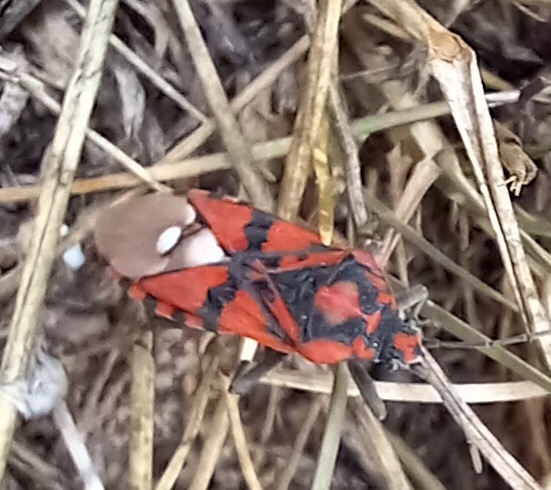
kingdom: Animalia
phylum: Arthropoda
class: Insecta
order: Hemiptera
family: Lygaeidae
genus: Spilostethus
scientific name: Spilostethus pandurus
